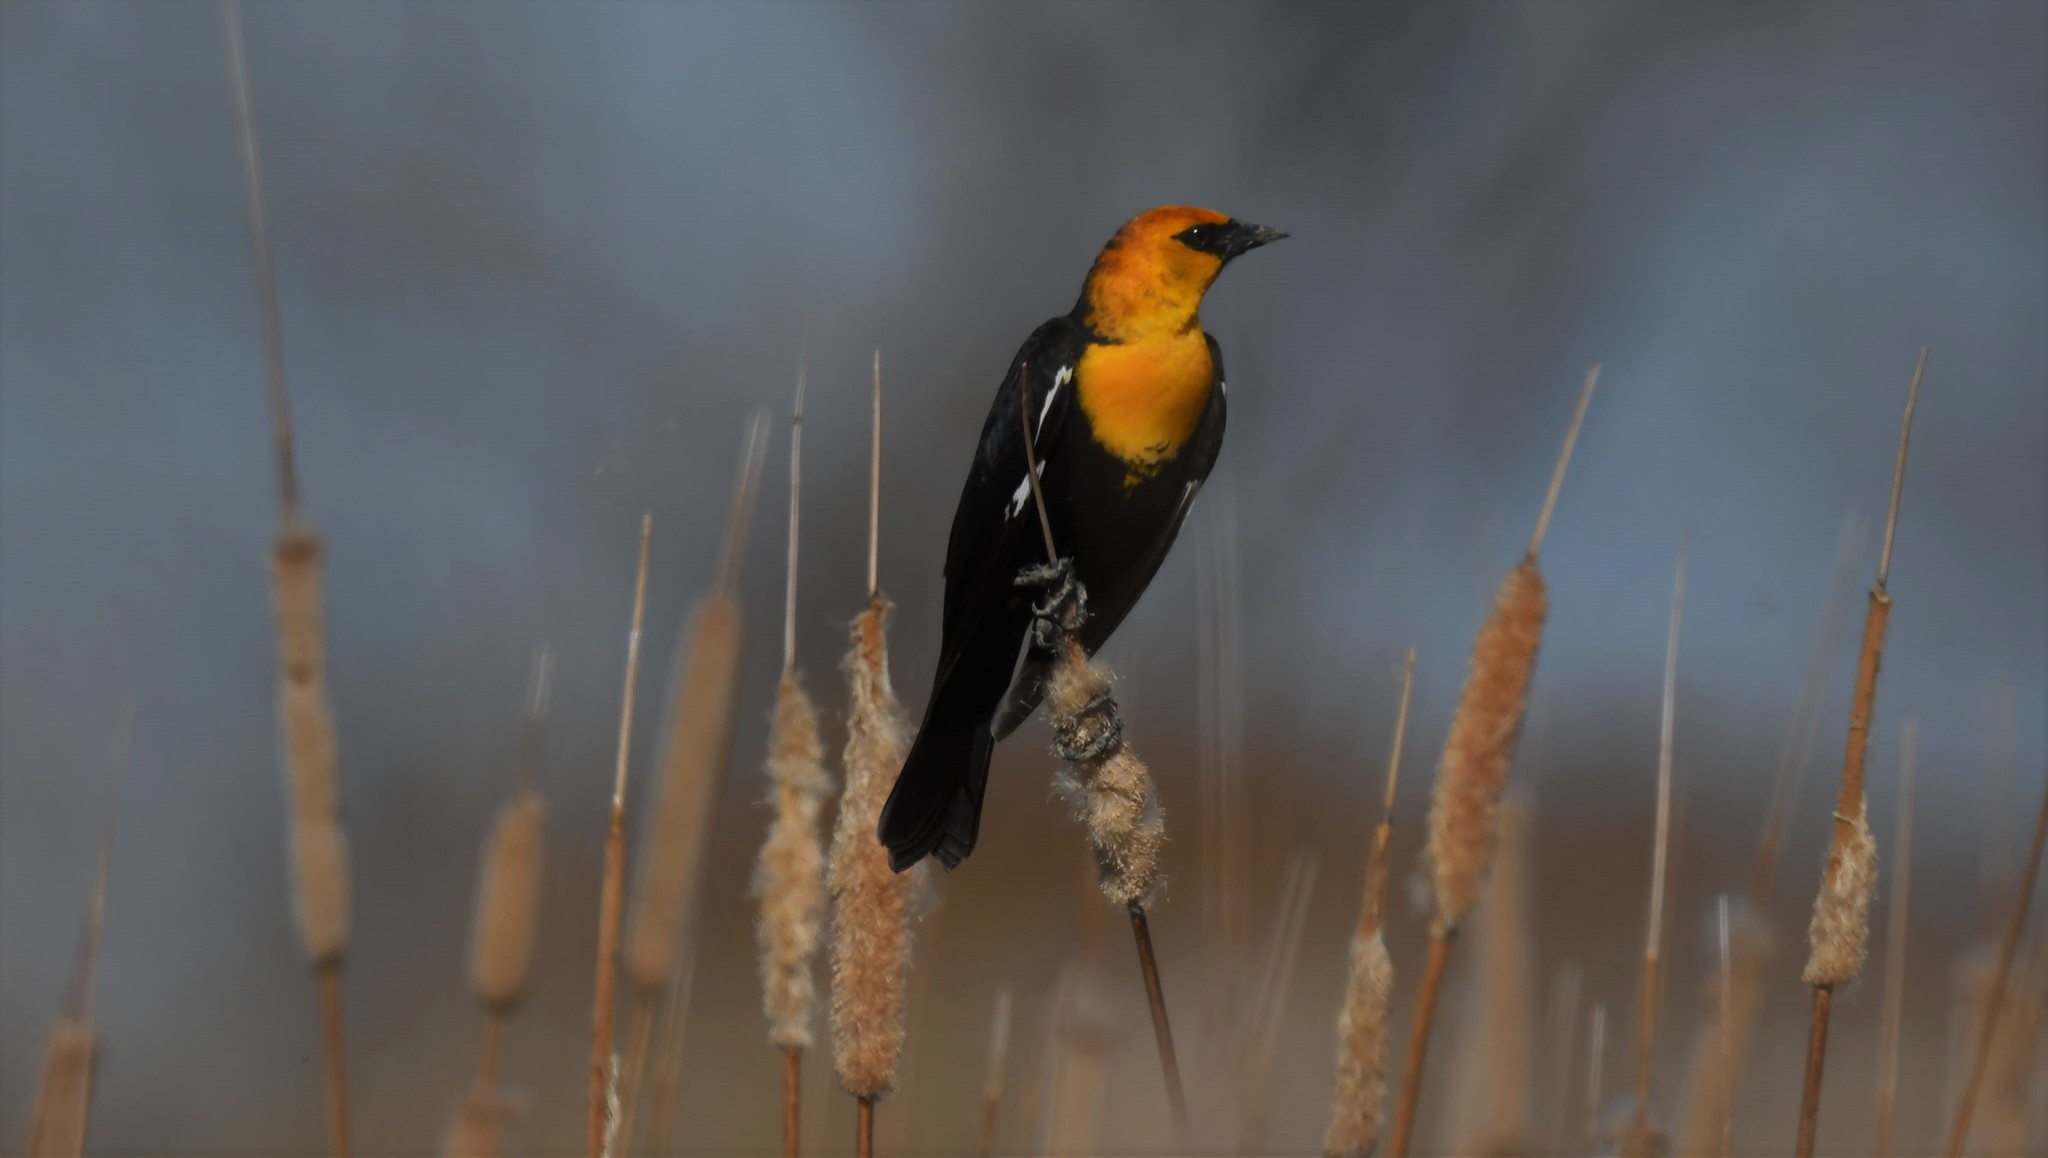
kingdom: Animalia
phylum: Chordata
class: Aves
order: Passeriformes
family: Icteridae
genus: Xanthocephalus
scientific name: Xanthocephalus xanthocephalus
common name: Yellow-headed blackbird
